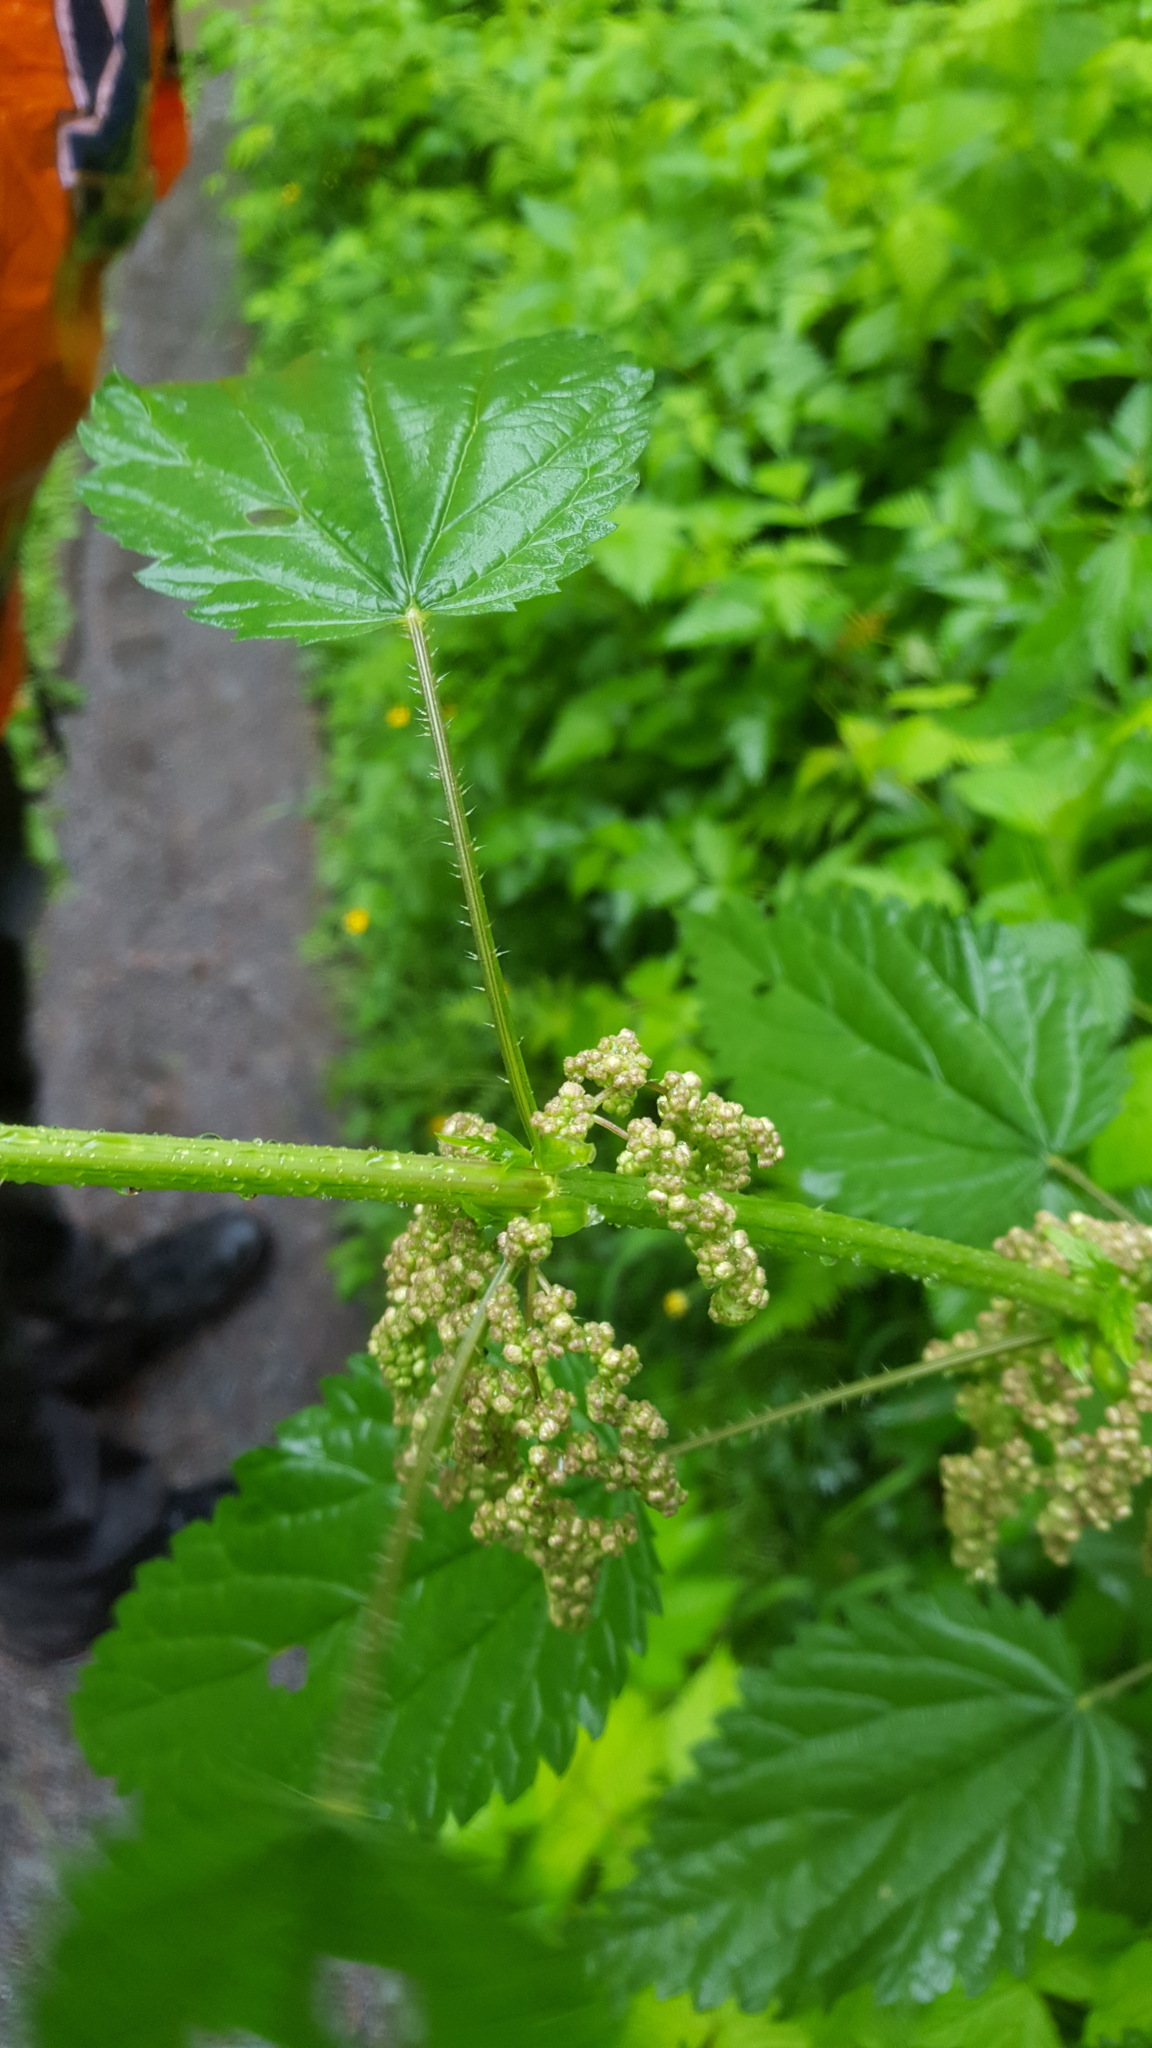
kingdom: Plantae
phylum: Tracheophyta
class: Magnoliopsida
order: Rosales
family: Urticaceae
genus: Urtica
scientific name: Urtica gracilis
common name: Slender stinging nettle
